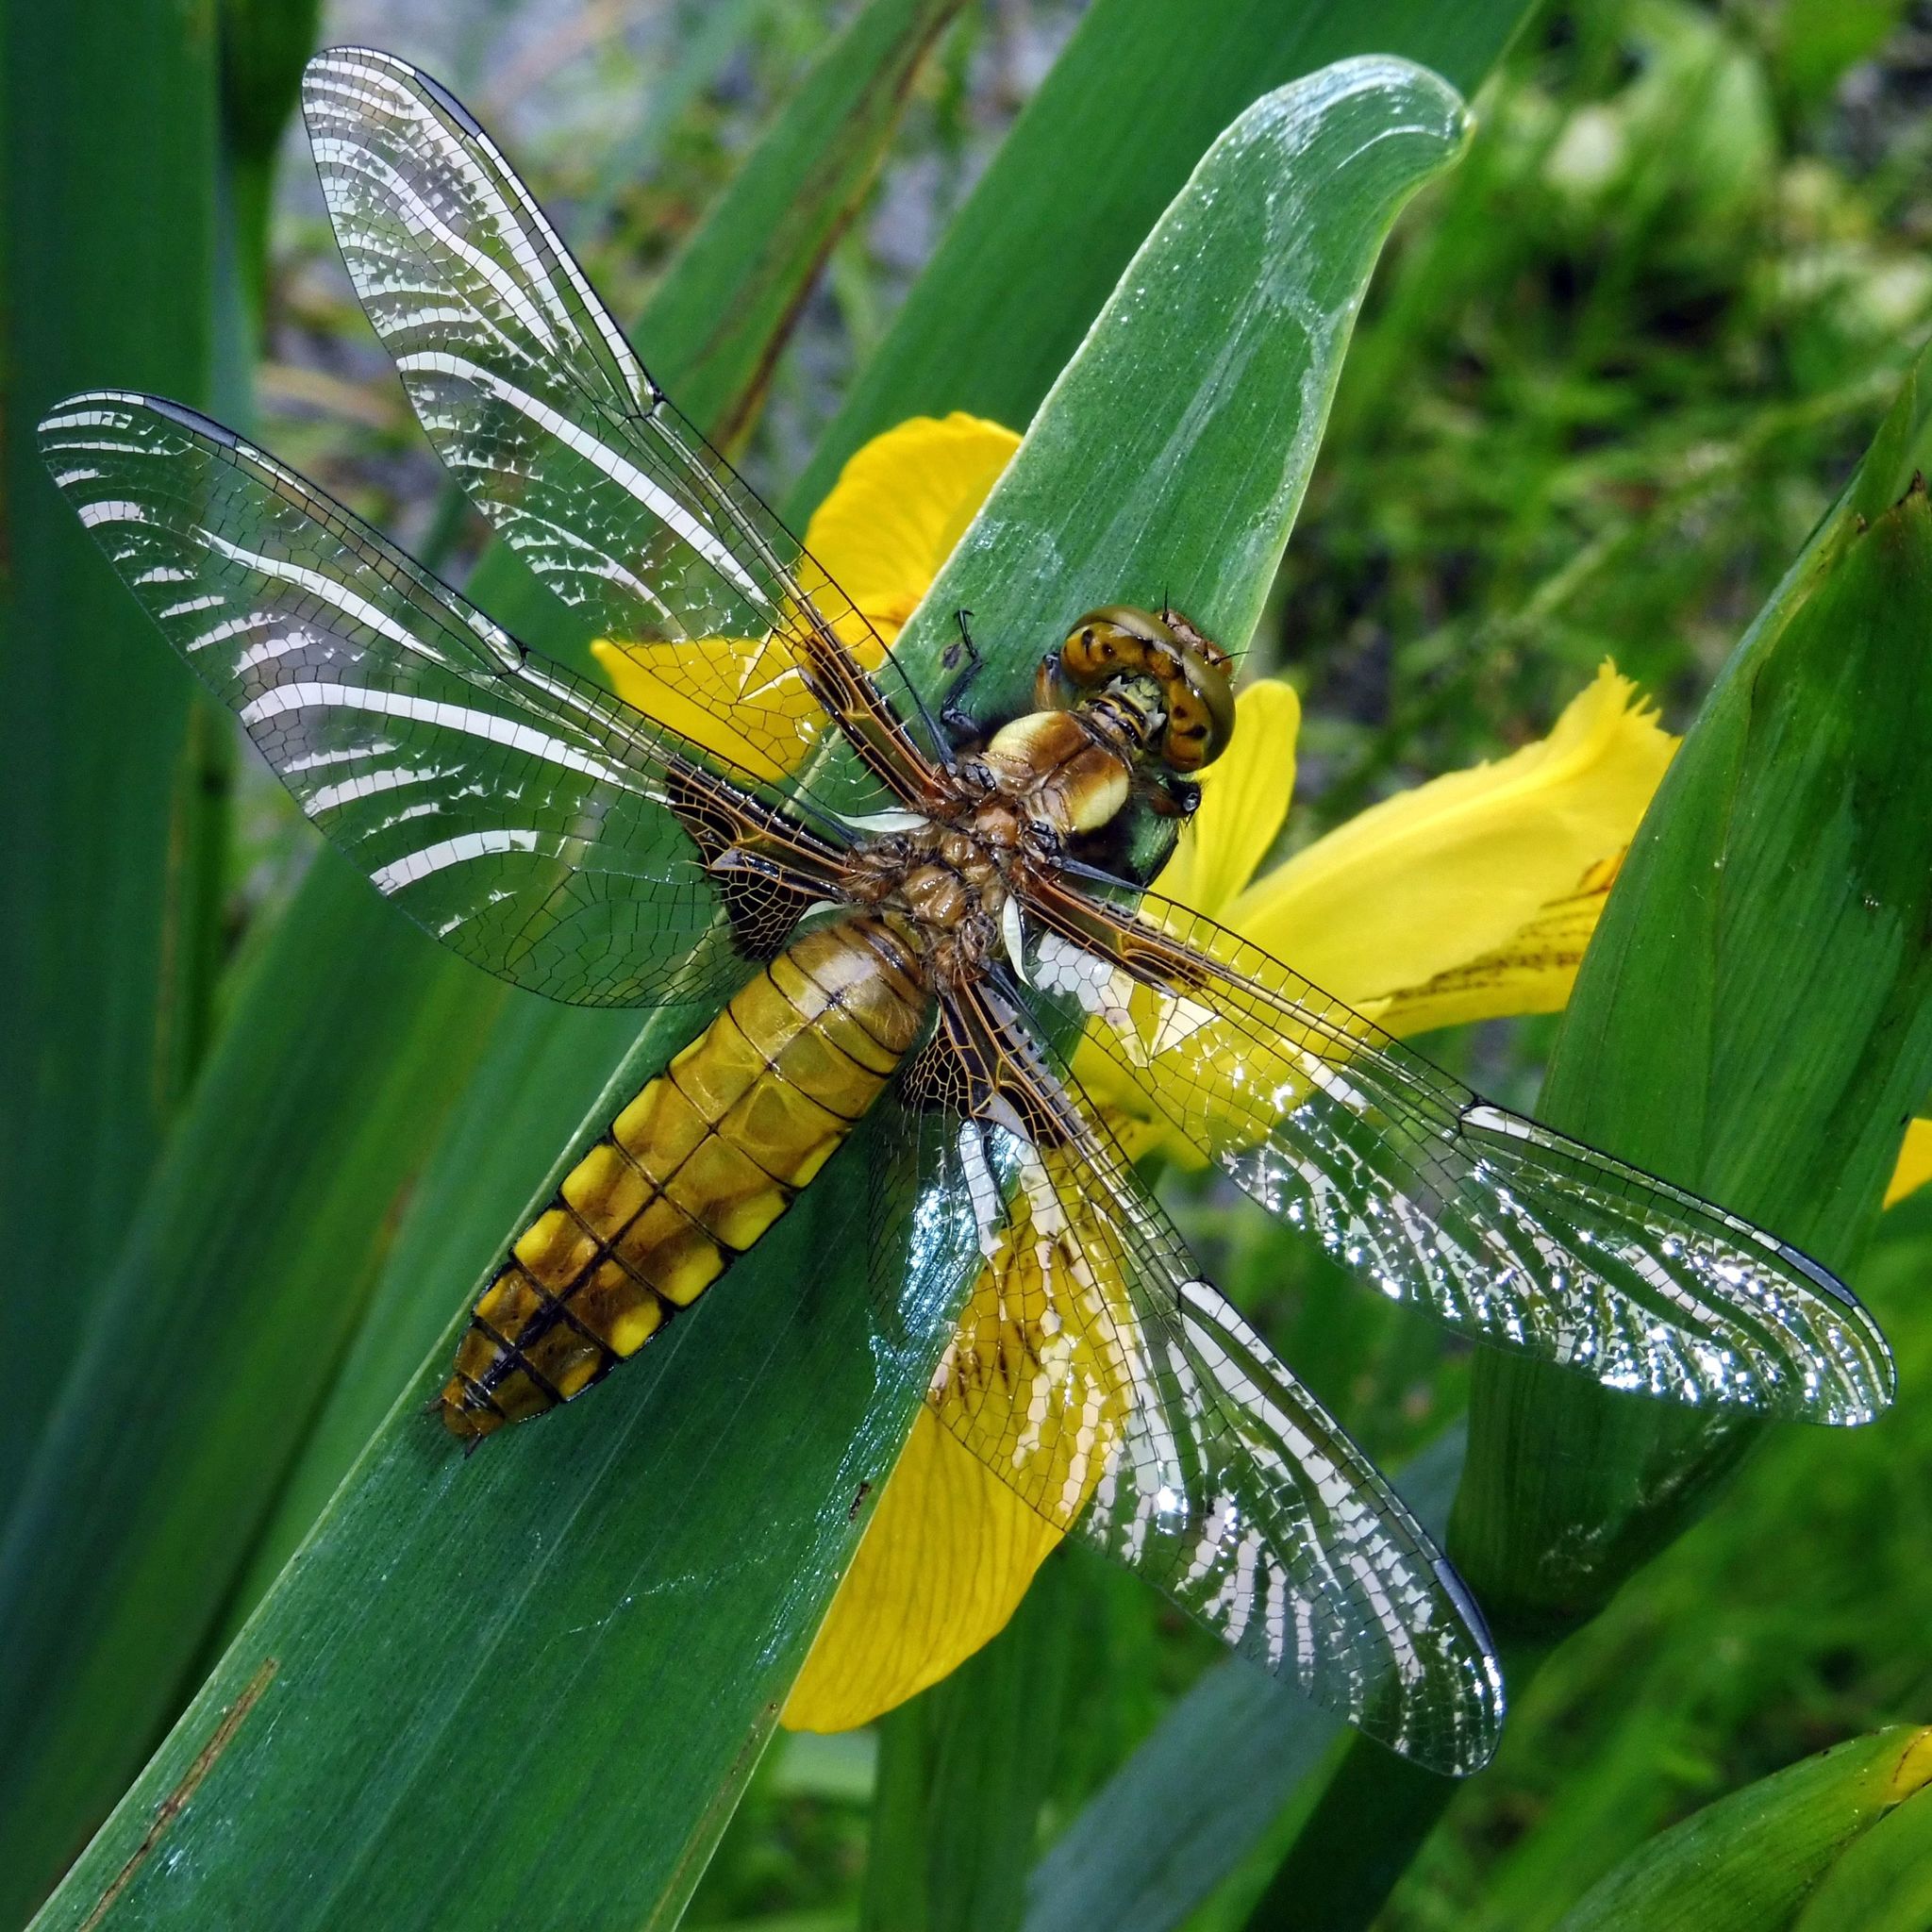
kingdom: Animalia
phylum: Arthropoda
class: Insecta
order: Odonata
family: Libellulidae
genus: Libellula
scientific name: Libellula depressa
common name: Broad-bodied chaser
